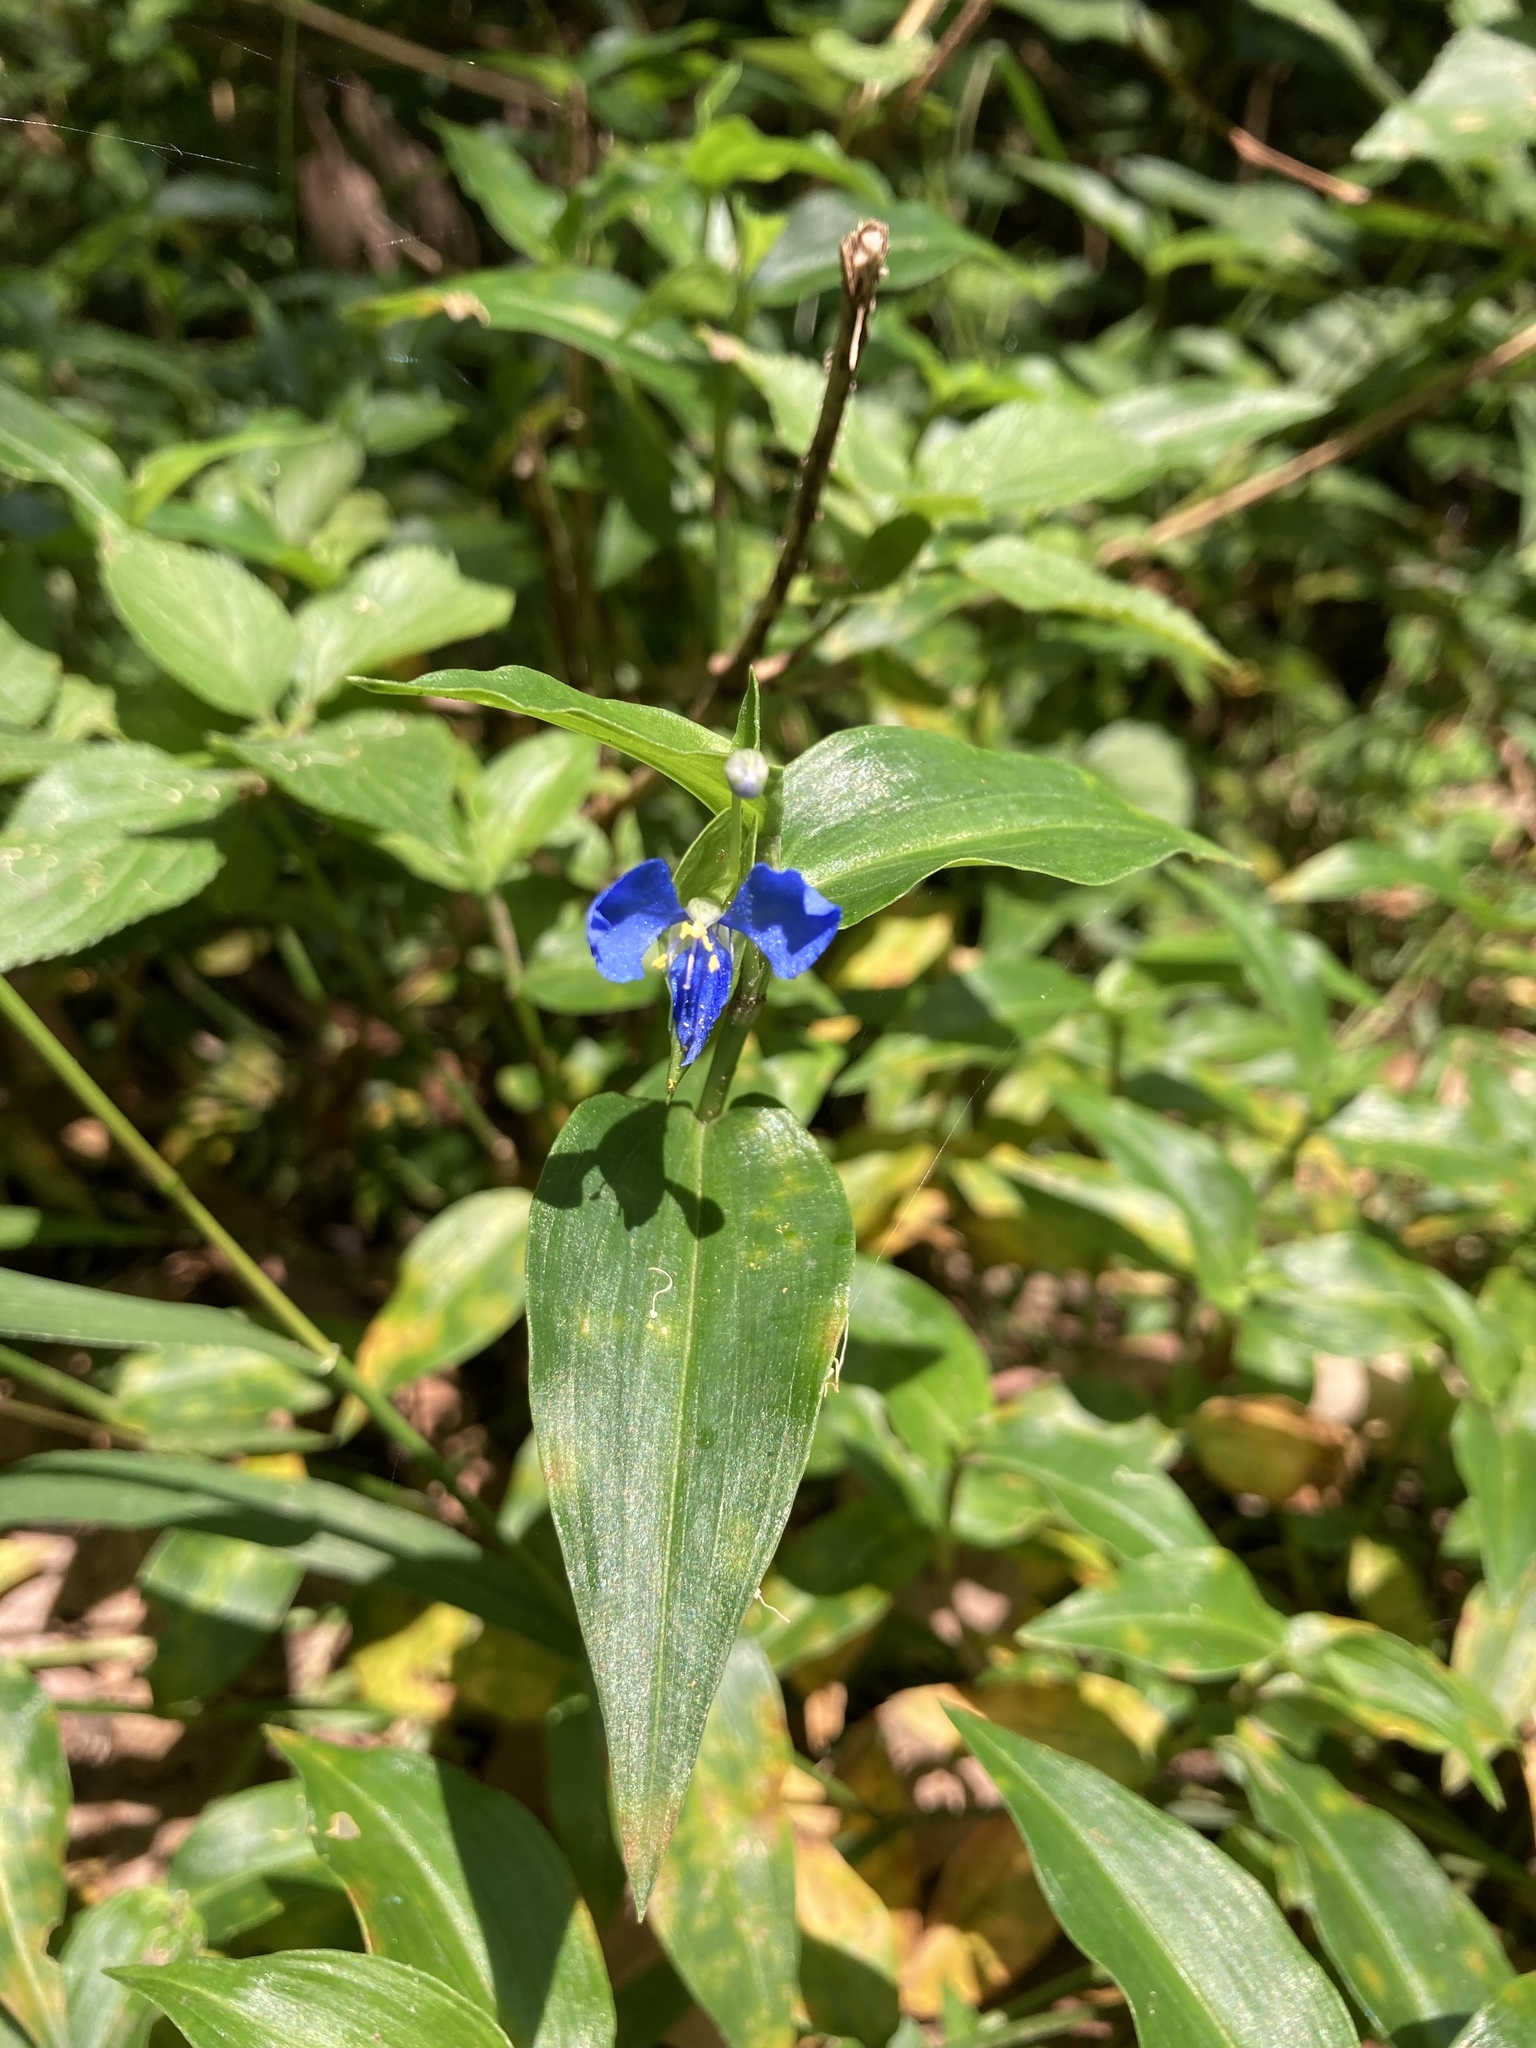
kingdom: Plantae
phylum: Tracheophyta
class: Liliopsida
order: Commelinales
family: Commelinaceae
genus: Commelina
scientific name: Commelina cyanea
